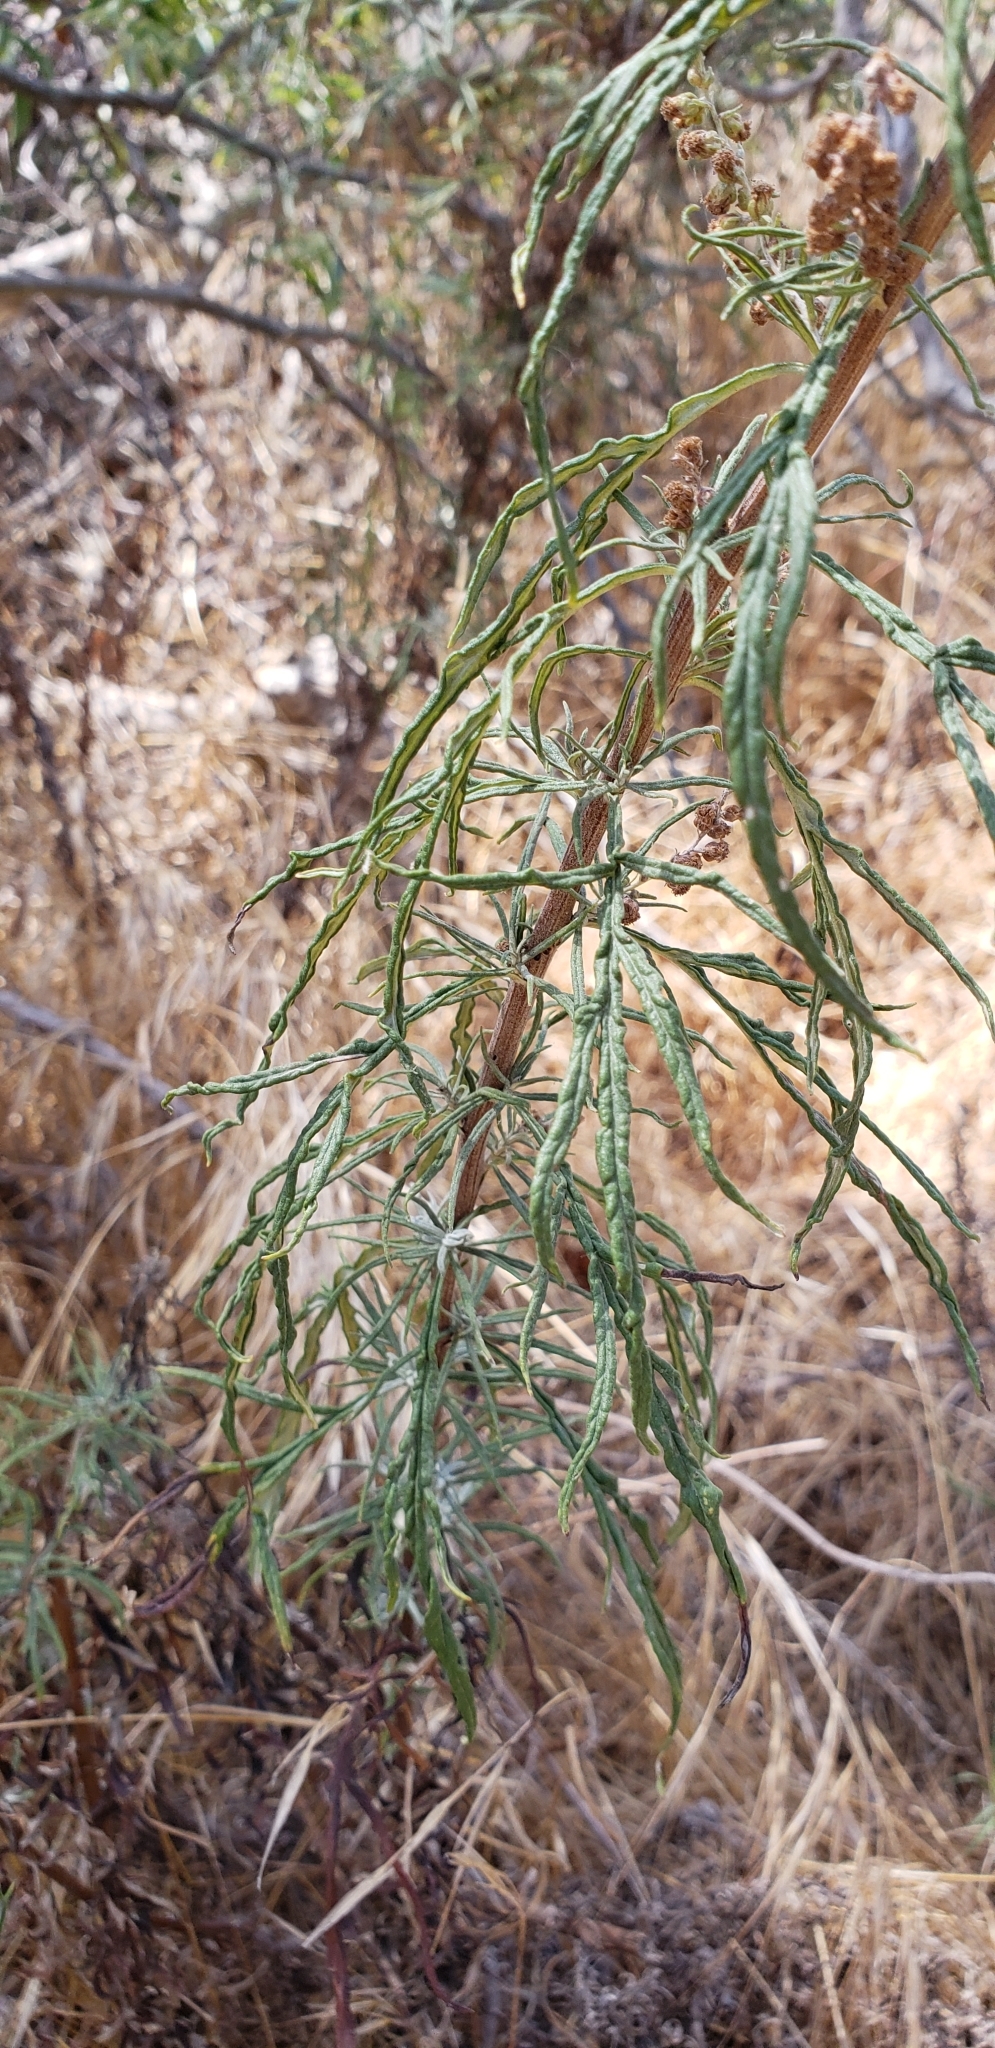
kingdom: Plantae
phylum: Tracheophyta
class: Magnoliopsida
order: Asterales
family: Asteraceae
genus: Artemisia
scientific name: Artemisia palmeri
